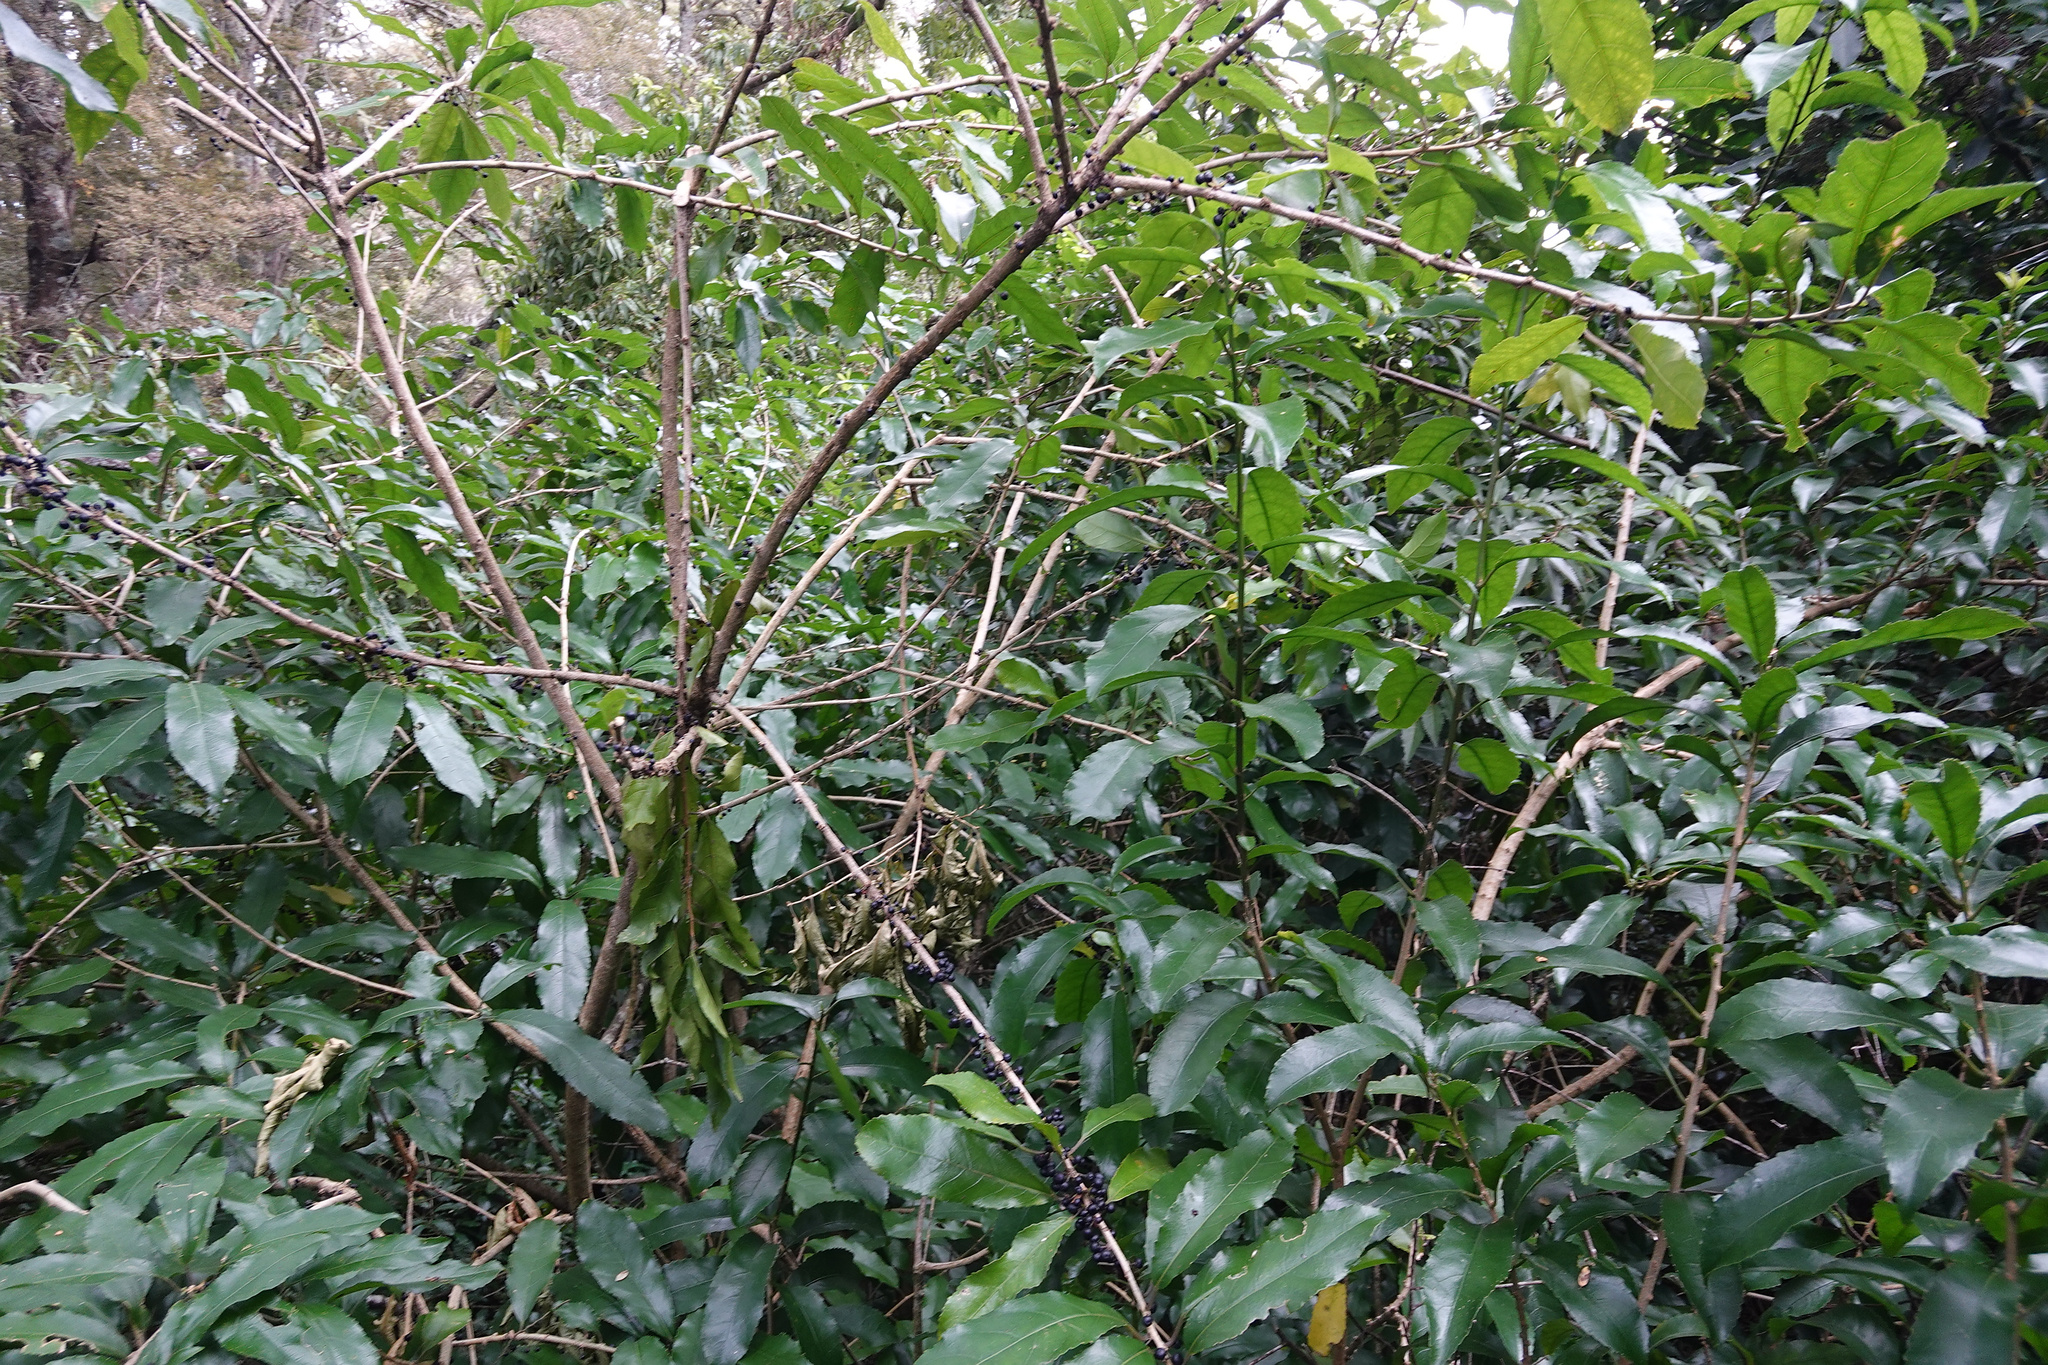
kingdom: Plantae
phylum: Tracheophyta
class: Magnoliopsida
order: Malpighiales
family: Violaceae
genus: Melicytus
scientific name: Melicytus ramiflorus
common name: Mahoe
